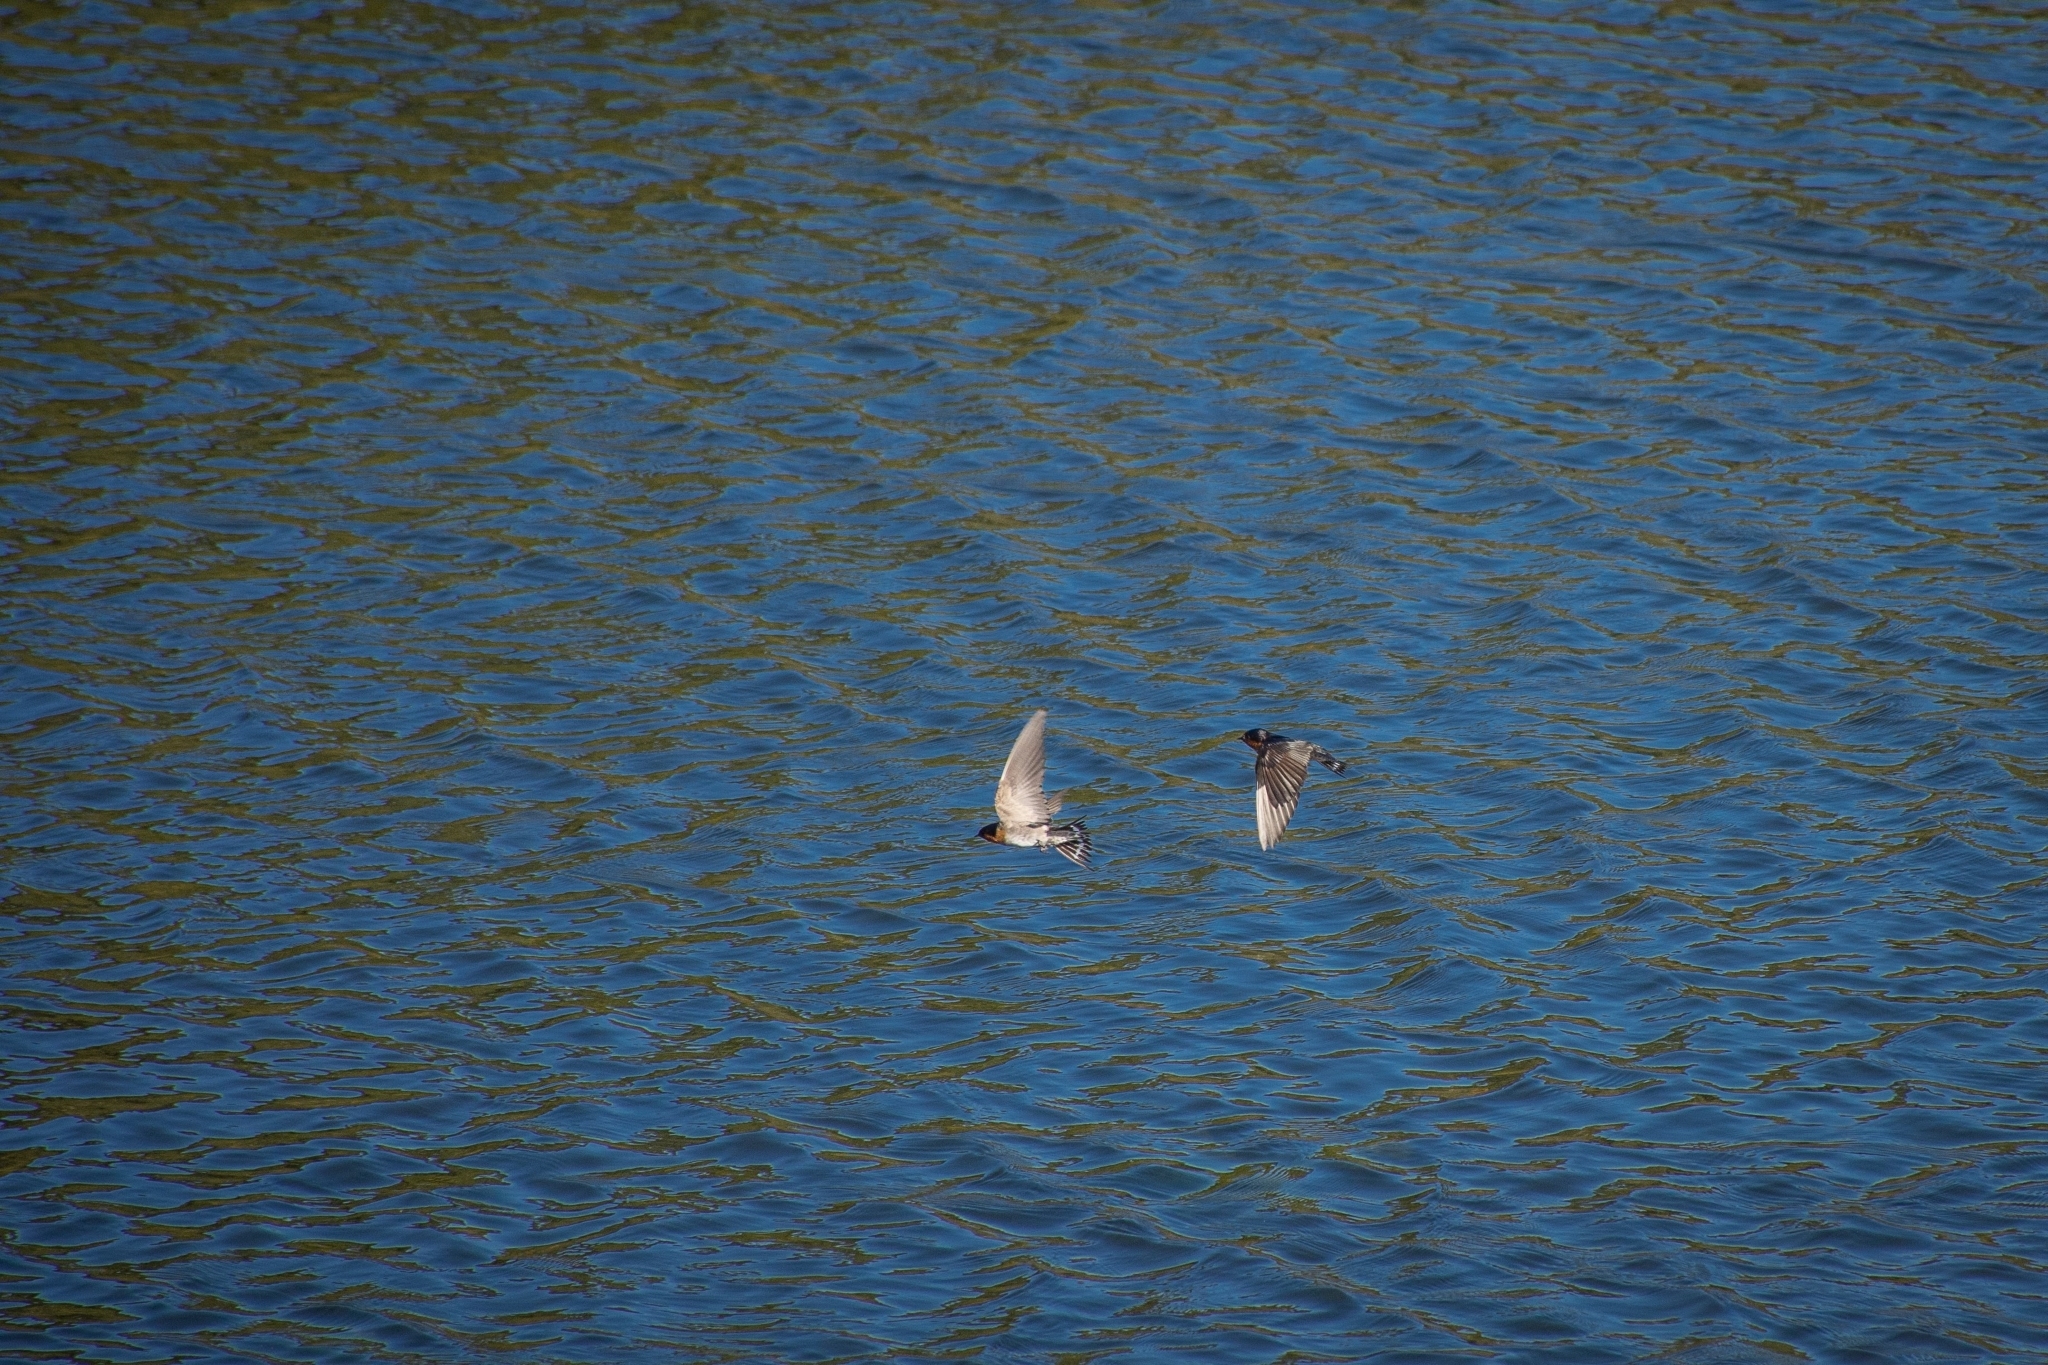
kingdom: Animalia
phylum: Chordata
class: Aves
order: Passeriformes
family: Hirundinidae
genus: Hirundo
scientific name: Hirundo neoxena
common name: Welcome swallow
